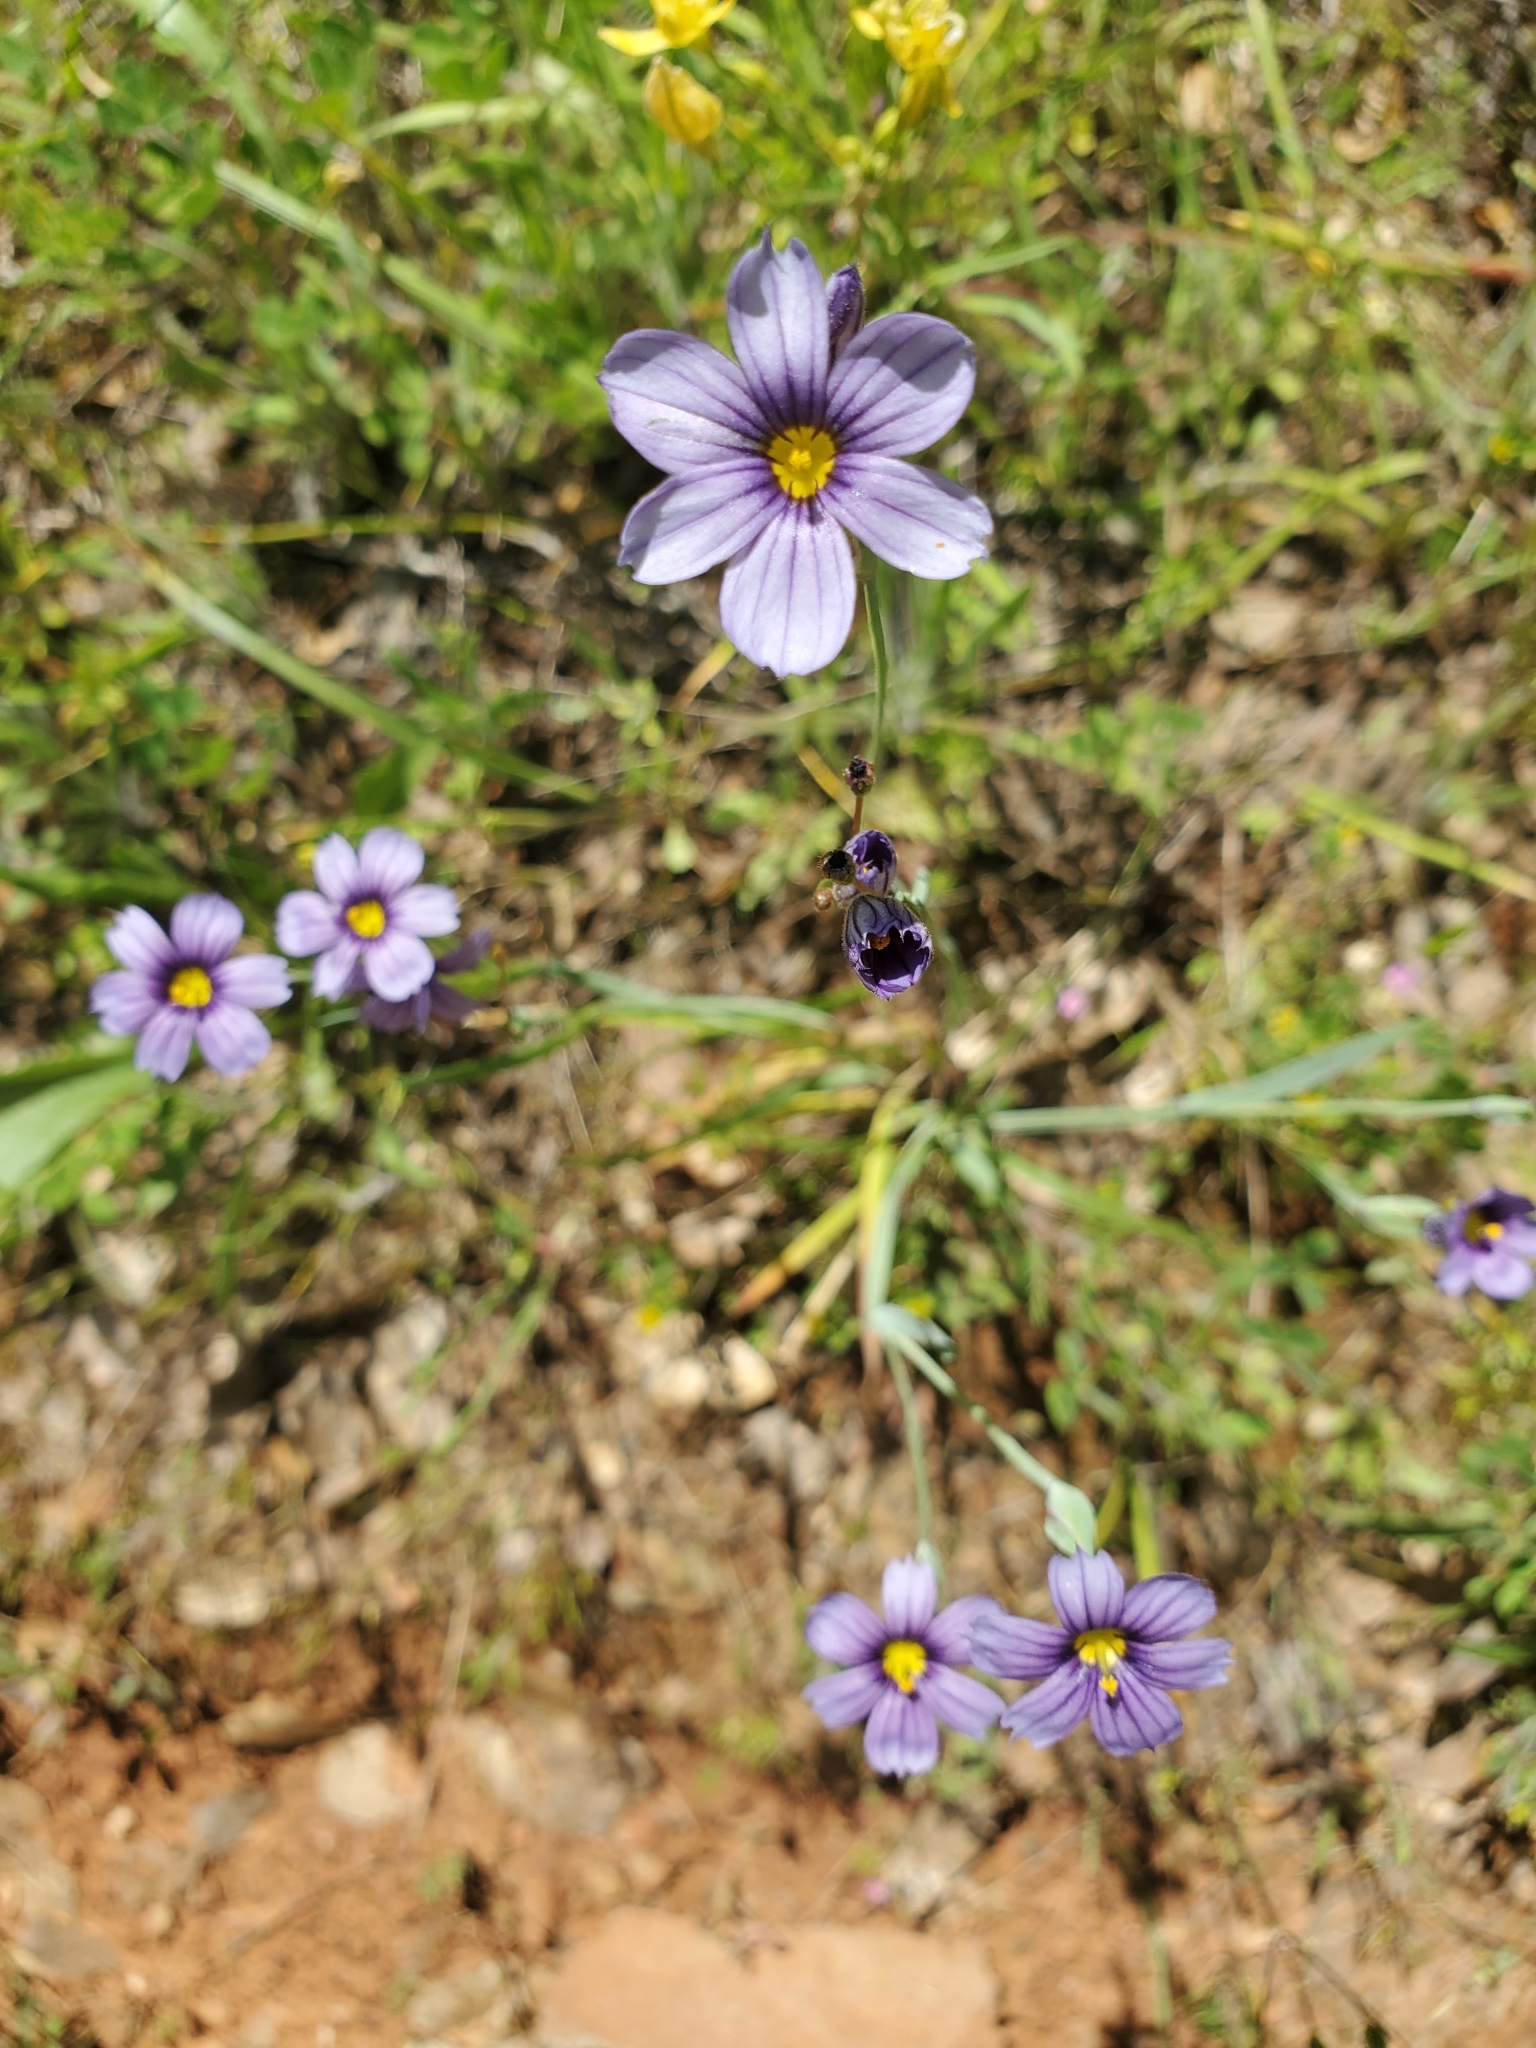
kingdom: Plantae
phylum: Tracheophyta
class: Liliopsida
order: Asparagales
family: Iridaceae
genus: Sisyrinchium
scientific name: Sisyrinchium bellum
